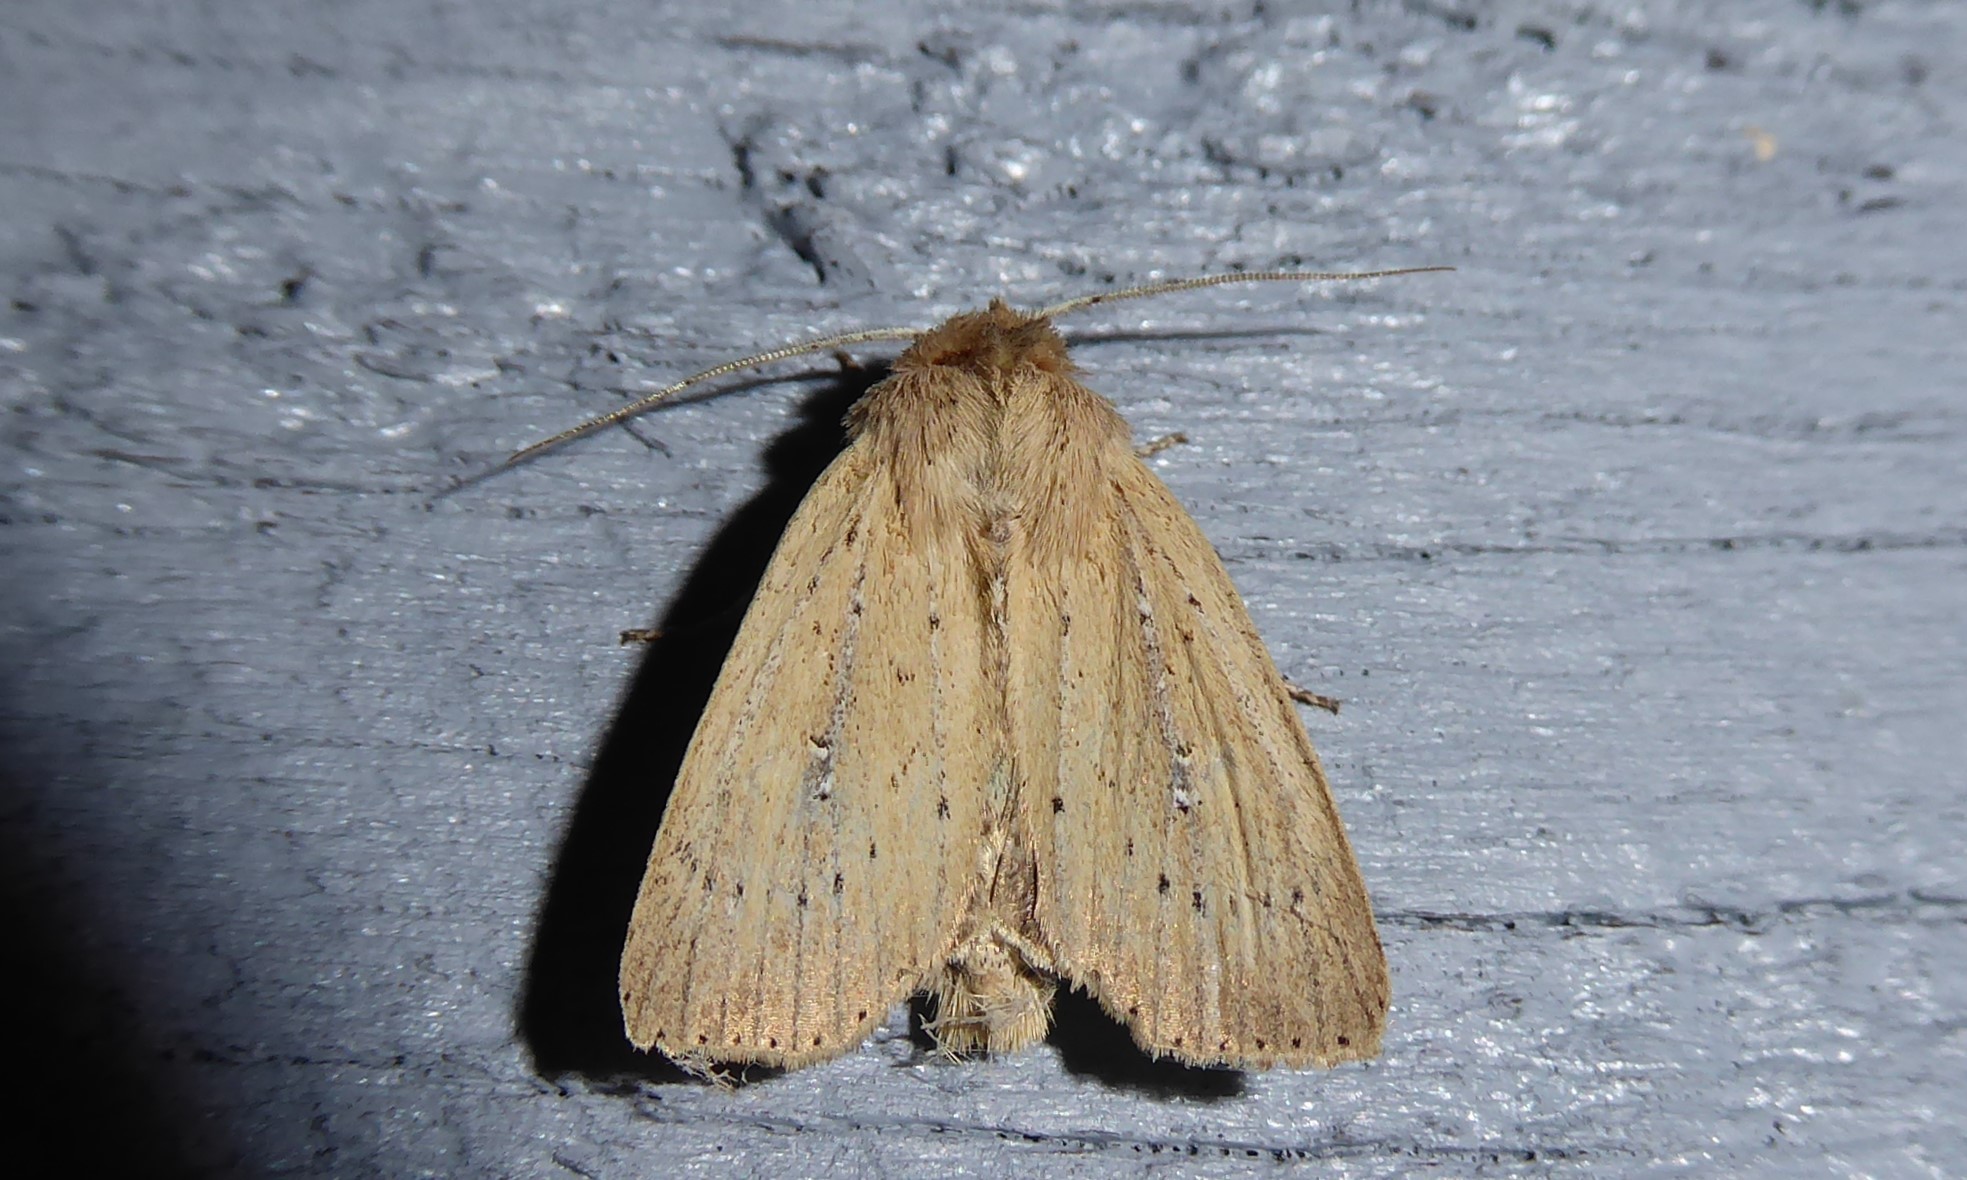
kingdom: Animalia
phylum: Arthropoda
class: Insecta
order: Lepidoptera
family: Noctuidae
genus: Ichneutica
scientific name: Ichneutica
